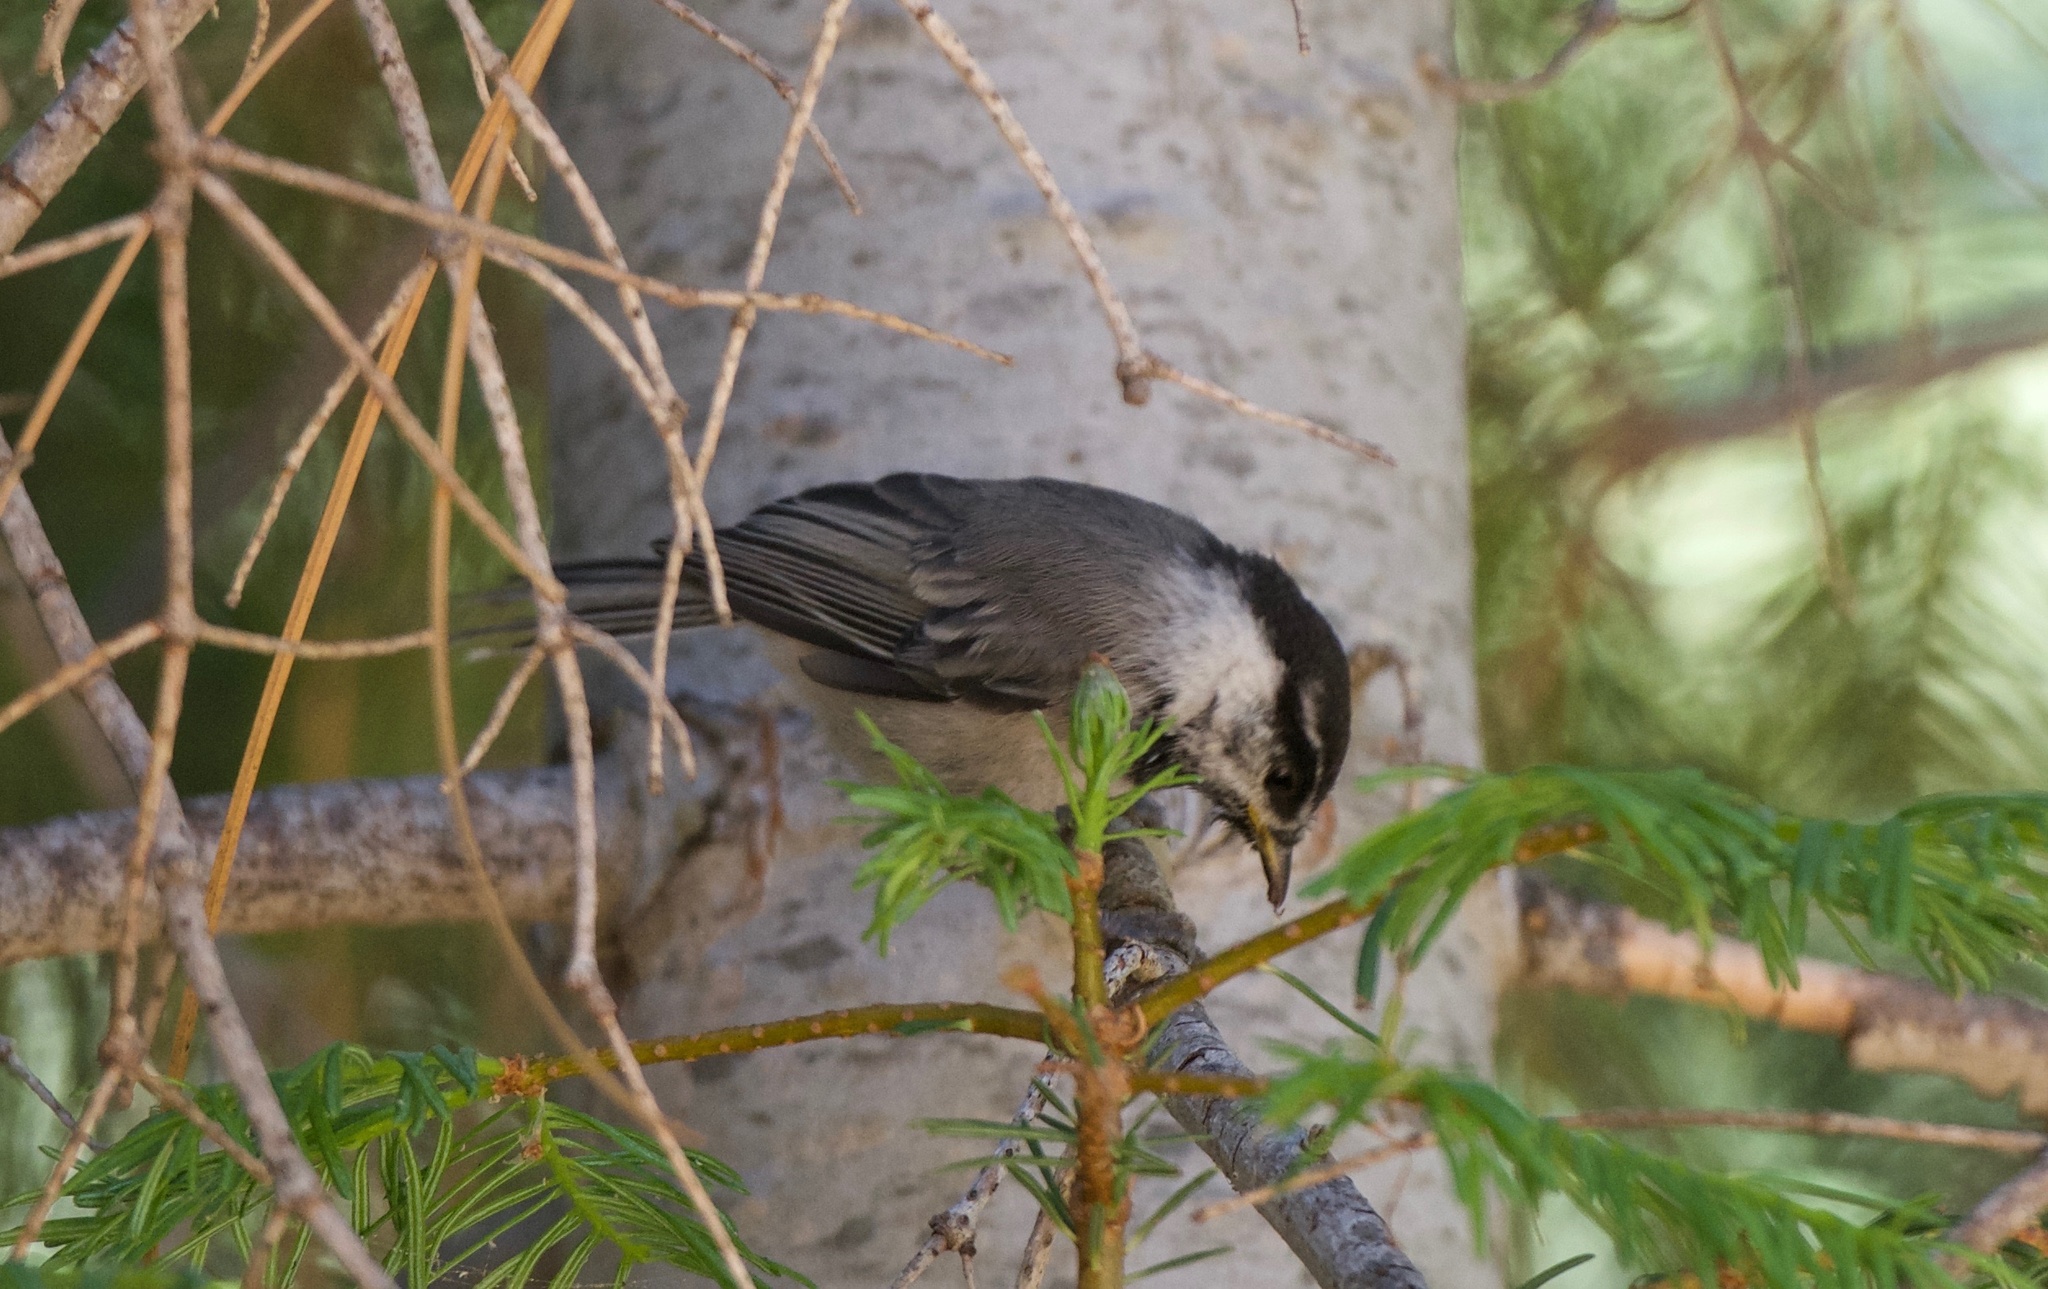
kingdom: Animalia
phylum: Chordata
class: Aves
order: Passeriformes
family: Paridae
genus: Poecile
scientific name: Poecile gambeli
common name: Mountain chickadee
